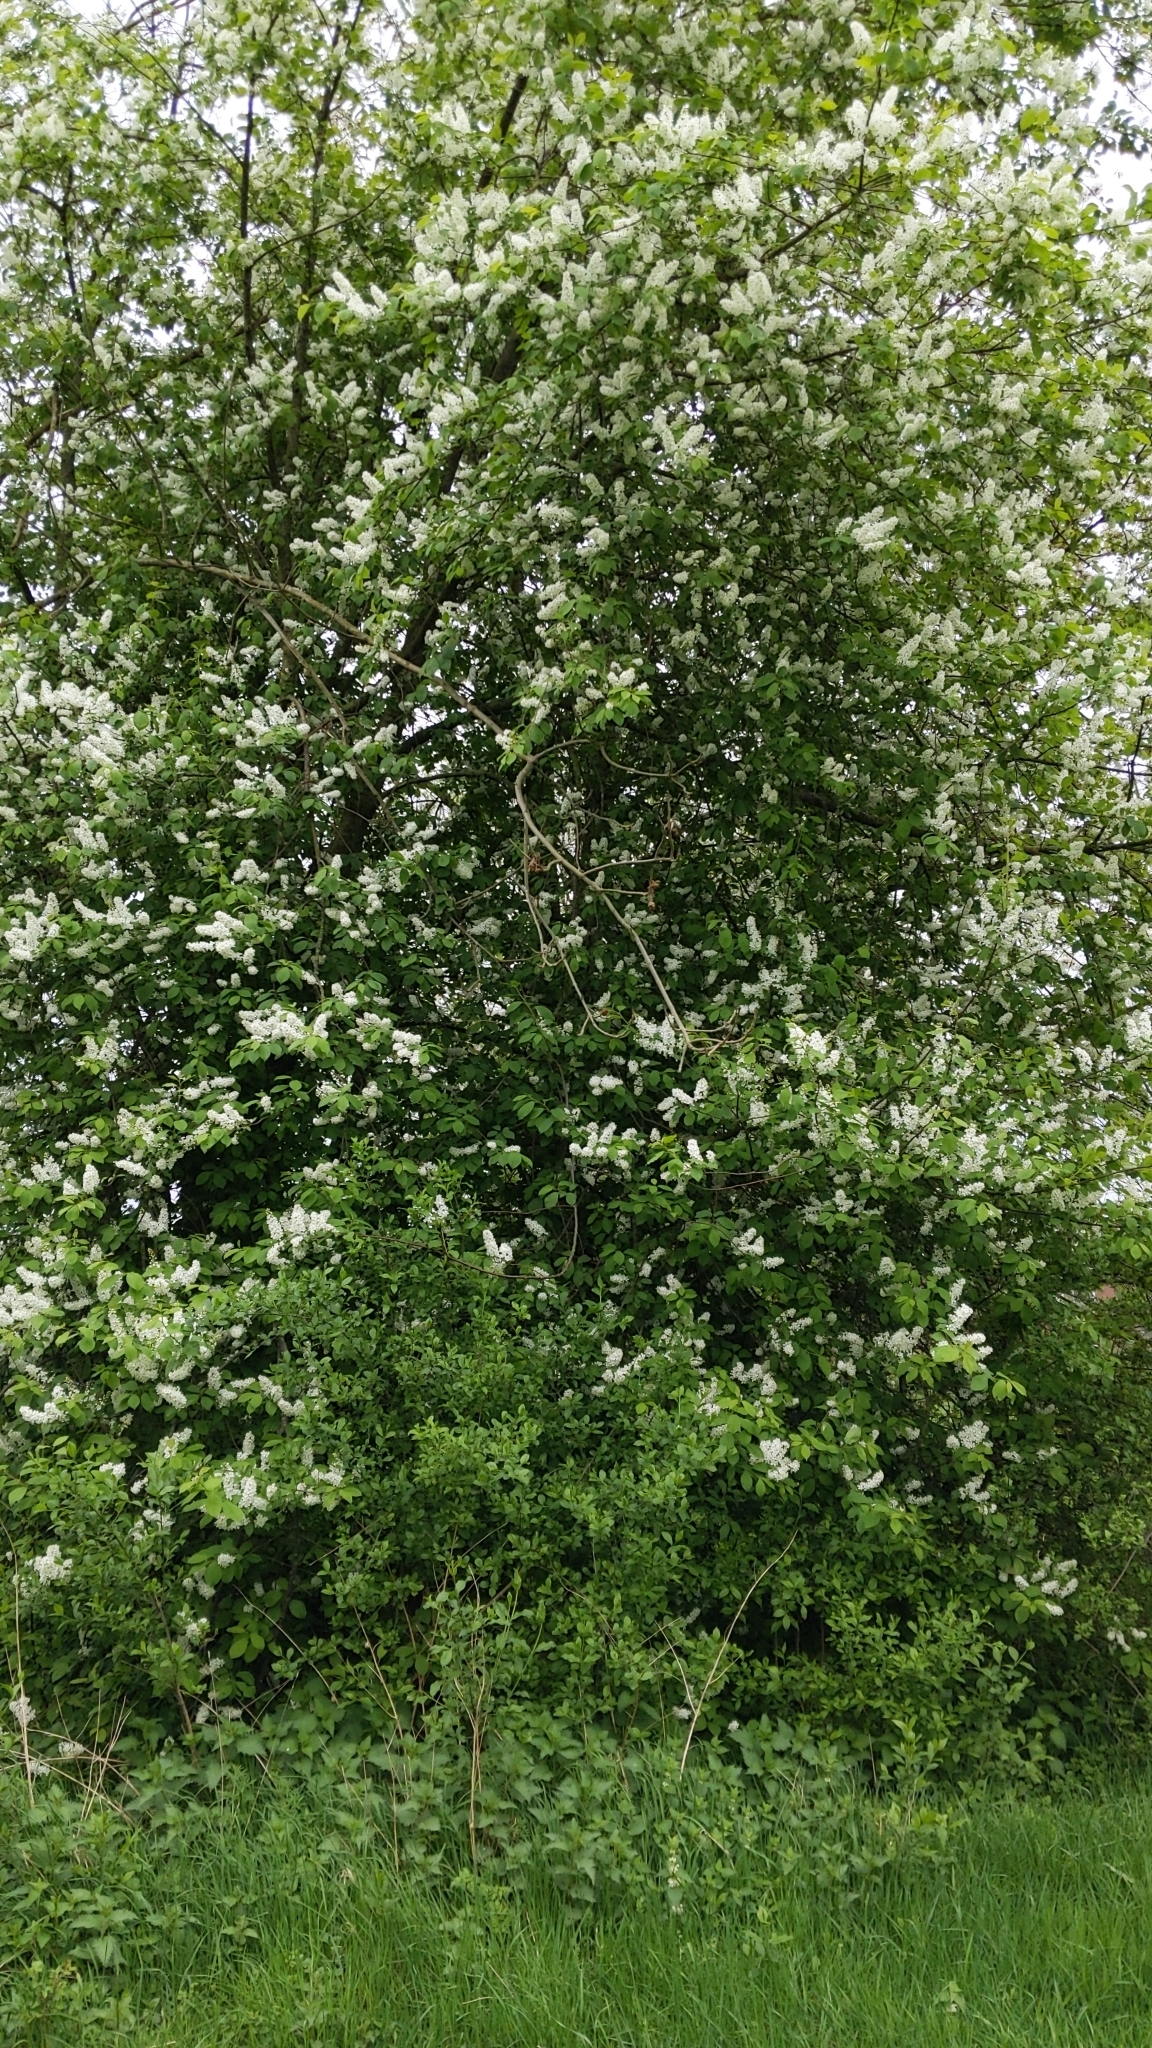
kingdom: Plantae
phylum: Tracheophyta
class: Magnoliopsida
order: Rosales
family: Rosaceae
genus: Prunus
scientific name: Prunus padus
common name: Bird cherry
